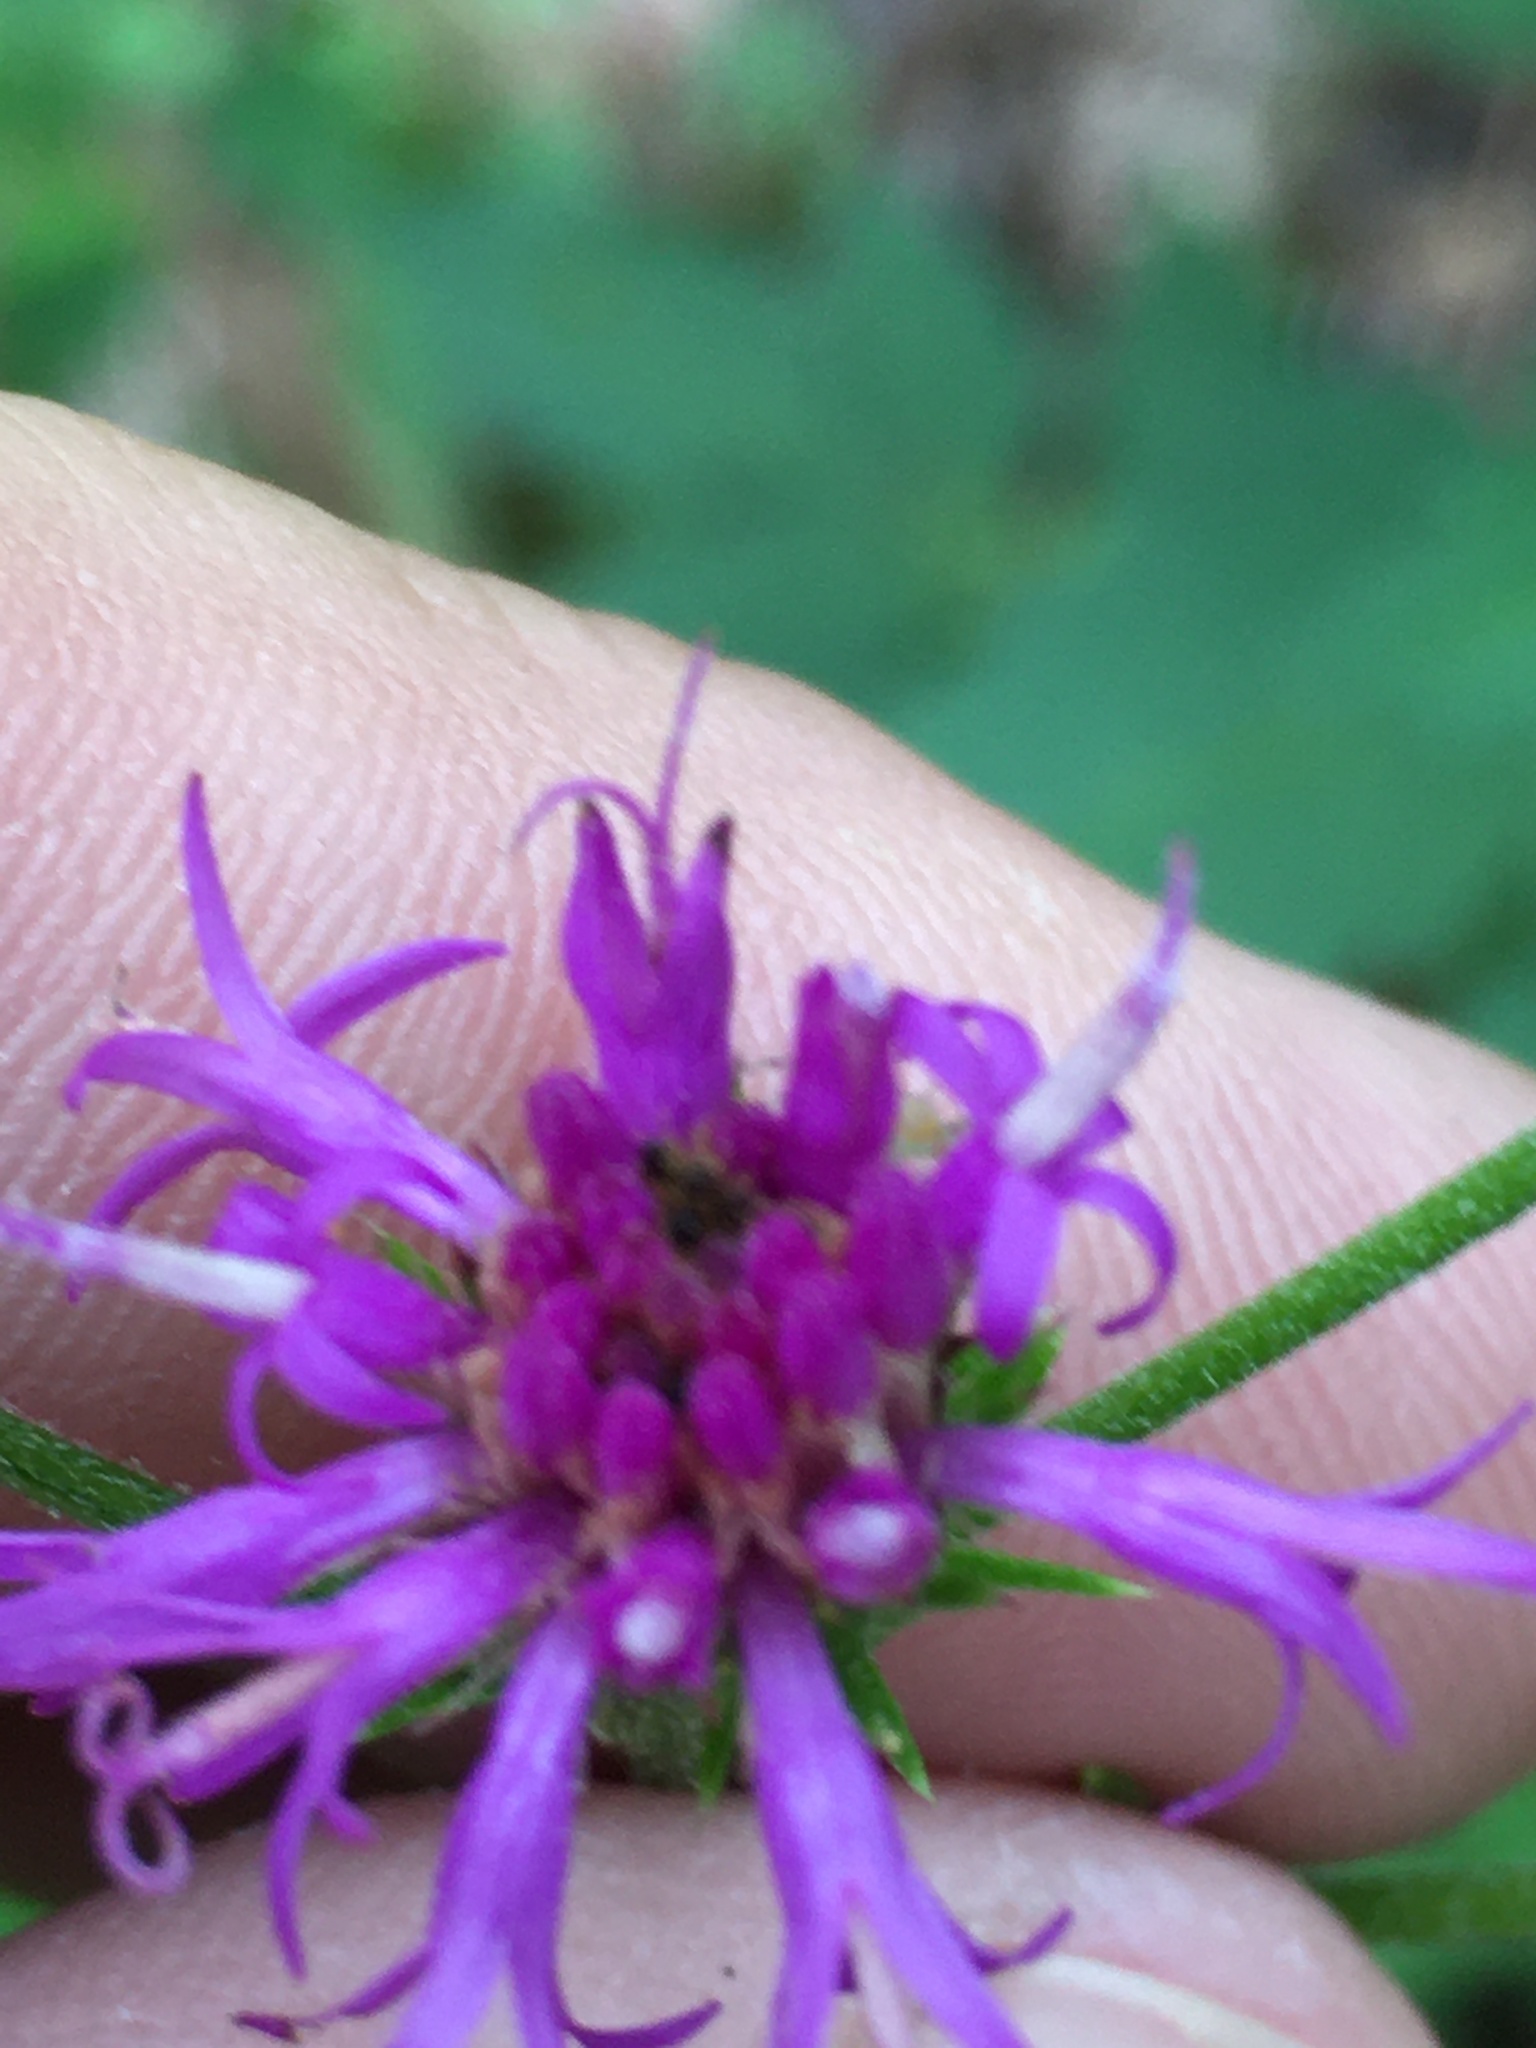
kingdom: Plantae
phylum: Tracheophyta
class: Magnoliopsida
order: Asterales
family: Asteraceae
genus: Vernonia
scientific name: Vernonia acaulis
